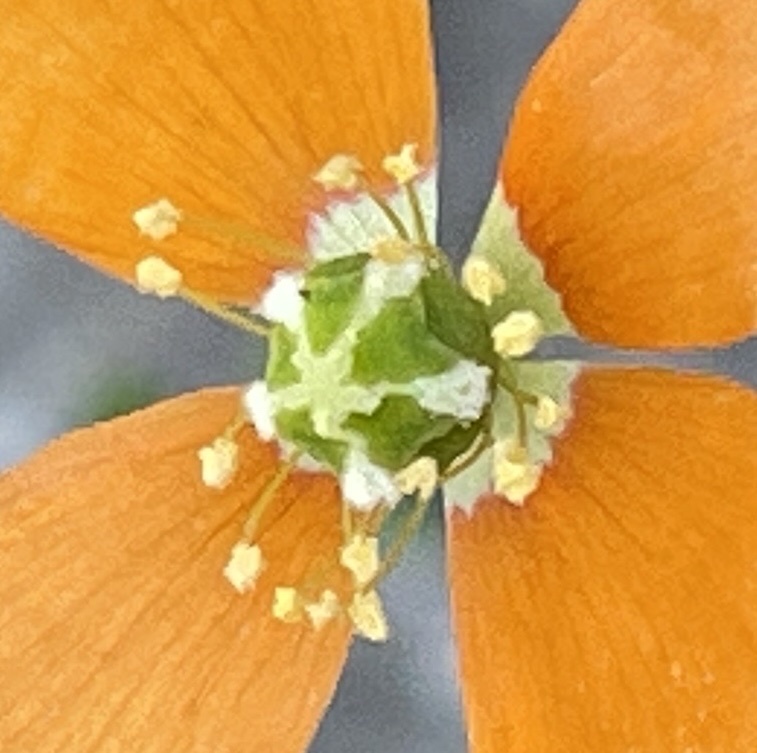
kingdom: Plantae
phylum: Tracheophyta
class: Magnoliopsida
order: Ranunculales
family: Papaveraceae
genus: Papaver
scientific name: Papaver californicum
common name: Fire poppy
